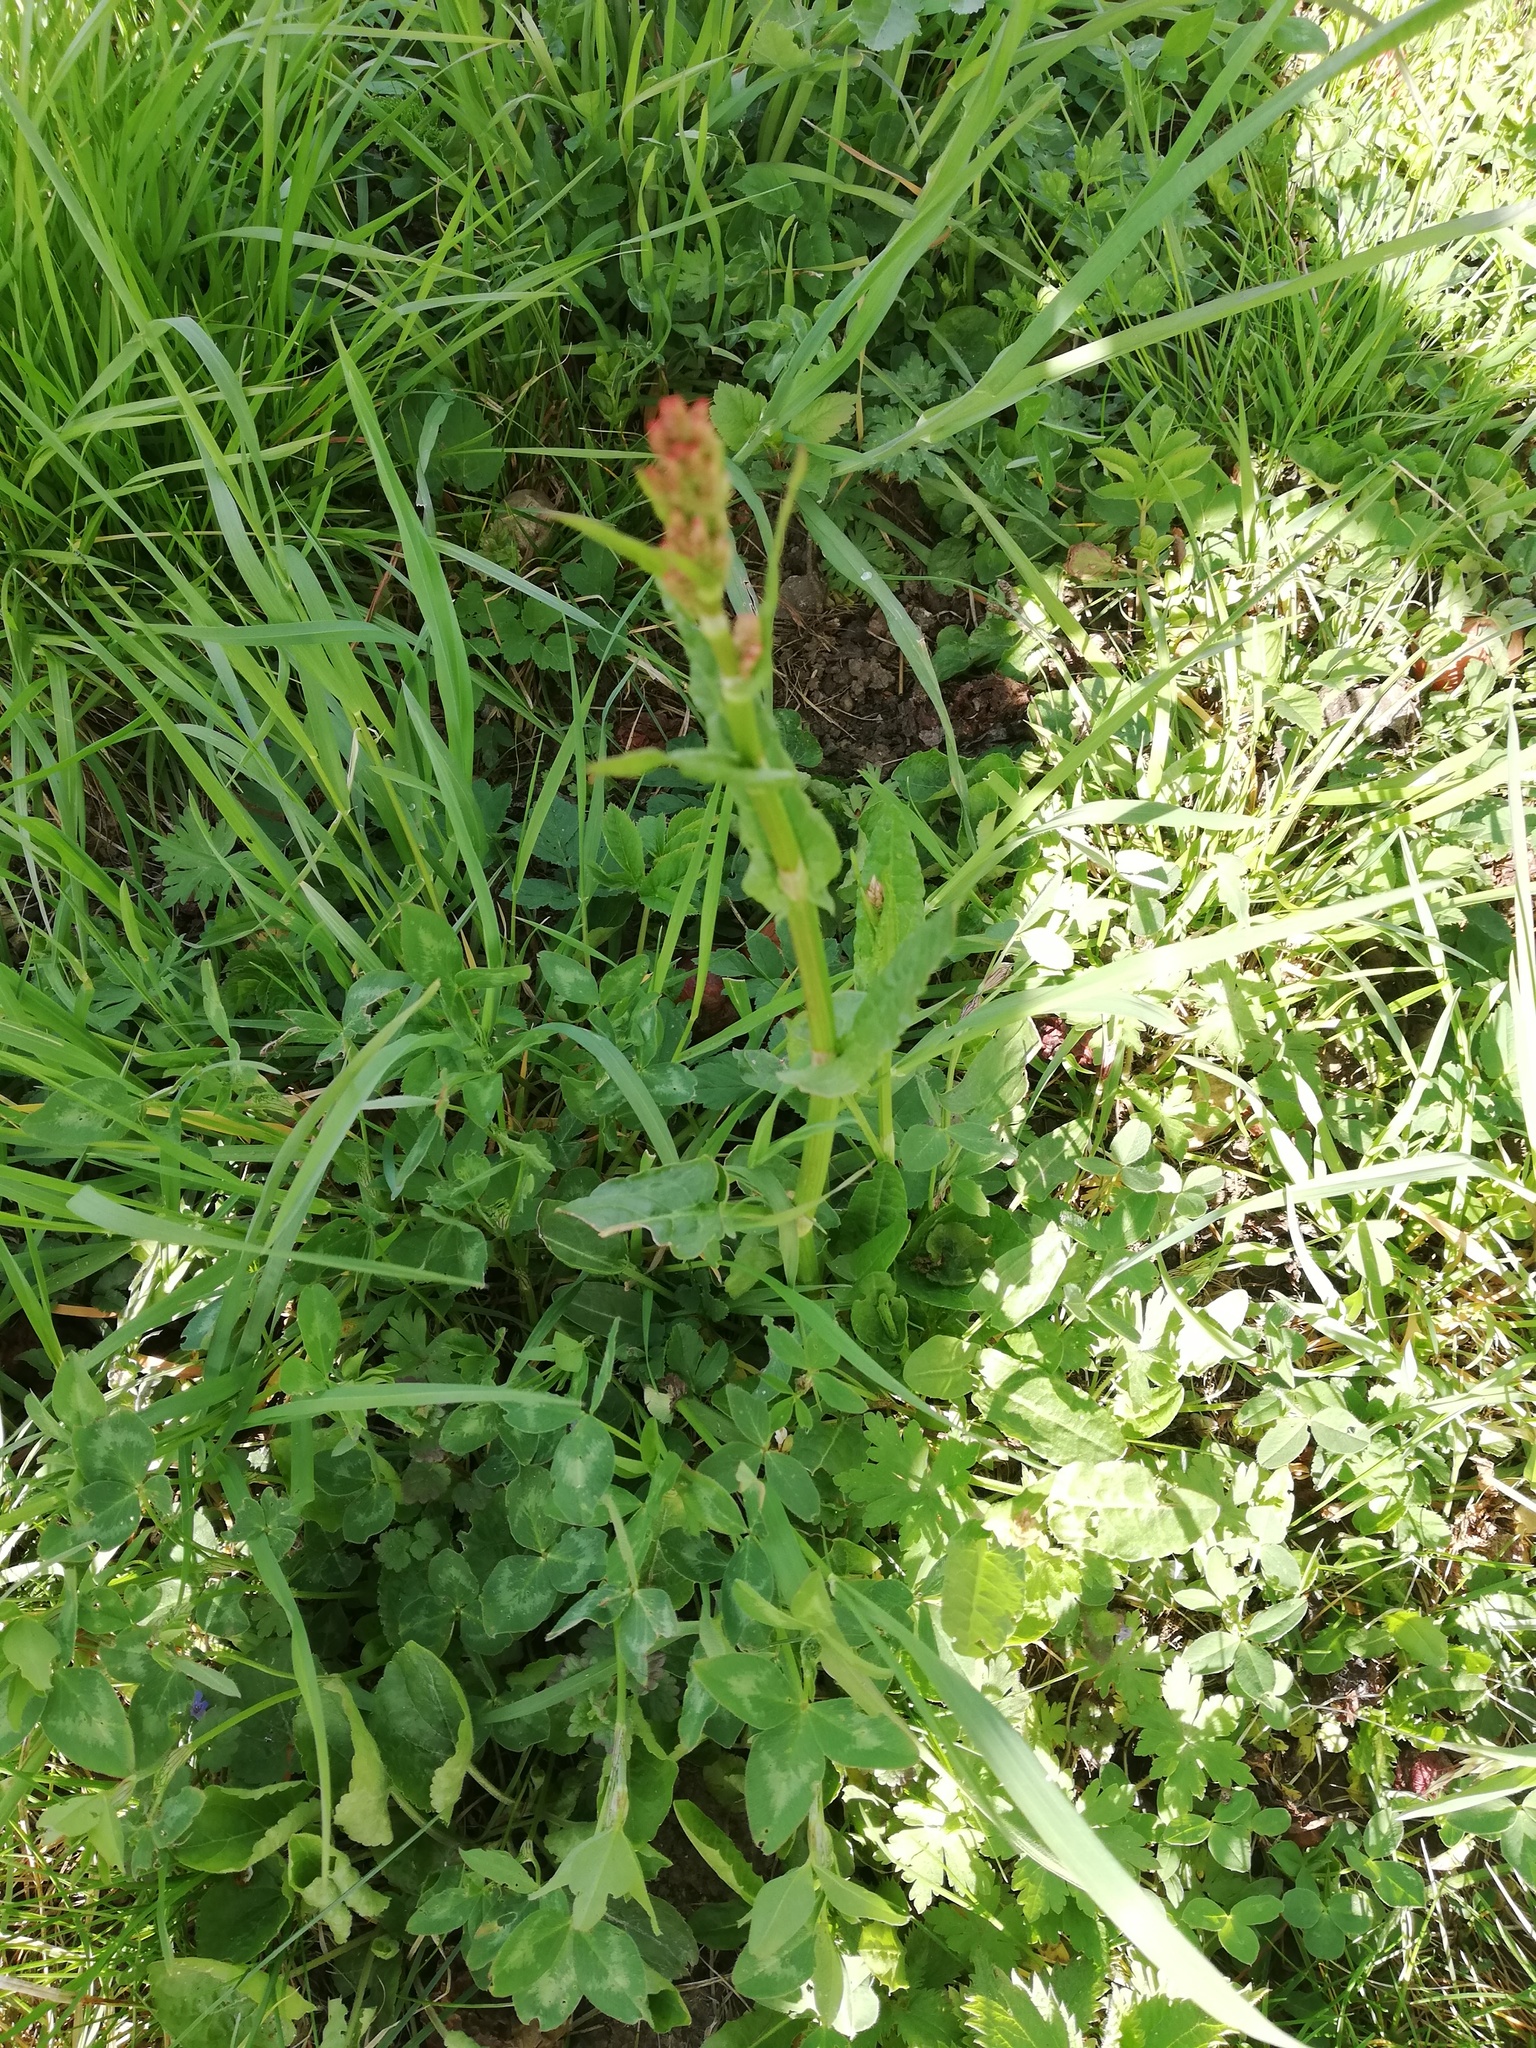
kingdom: Plantae
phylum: Tracheophyta
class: Magnoliopsida
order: Caryophyllales
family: Polygonaceae
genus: Rumex
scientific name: Rumex acetosa
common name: Garden sorrel
